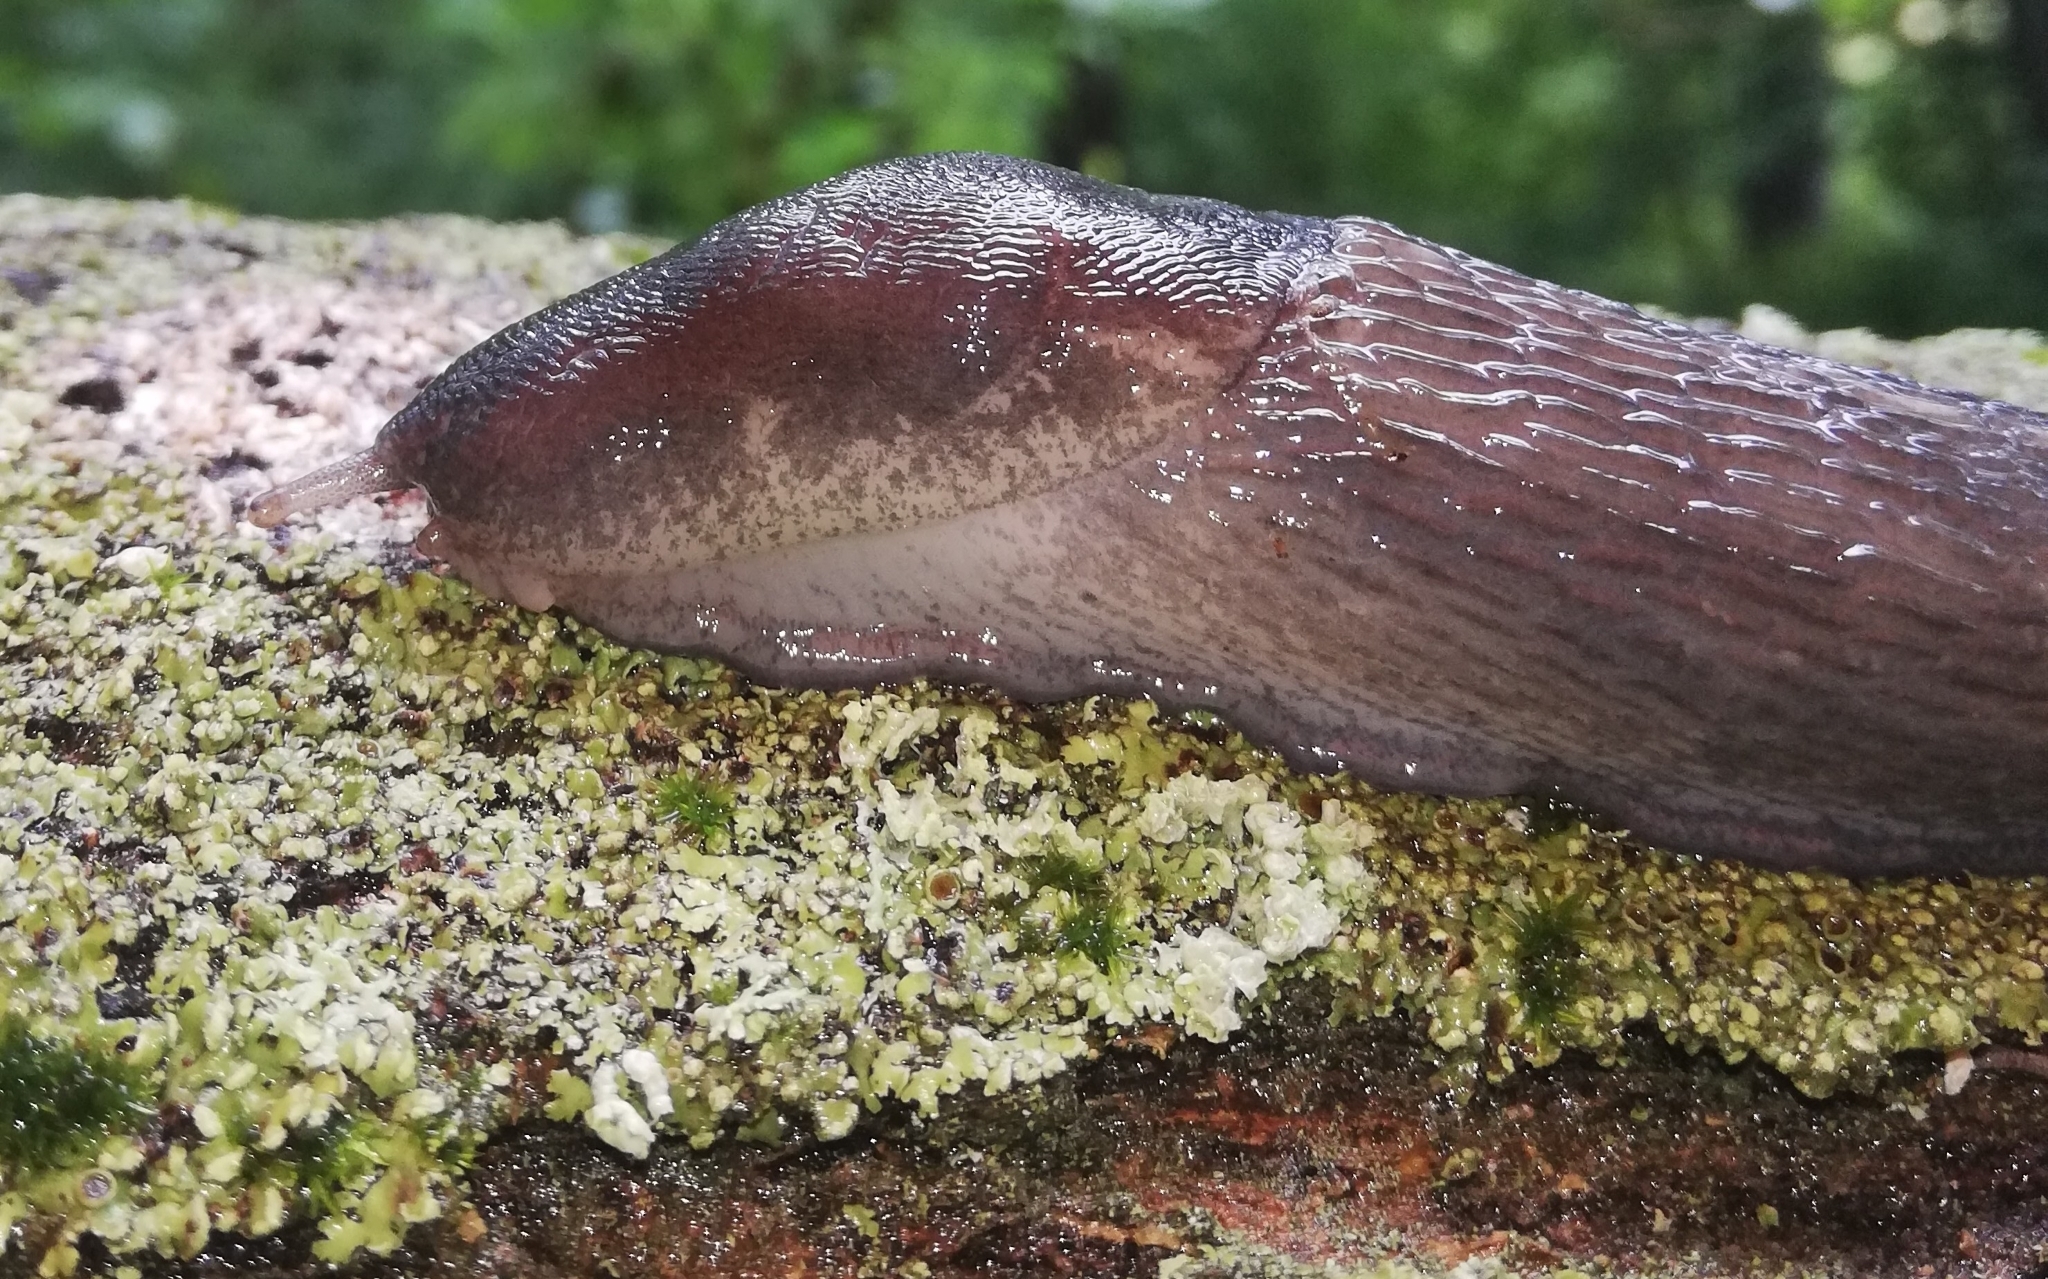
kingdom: Animalia
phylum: Mollusca
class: Gastropoda
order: Stylommatophora
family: Limacidae
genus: Limax
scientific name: Limax cinereoniger
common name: Ash-black slug
